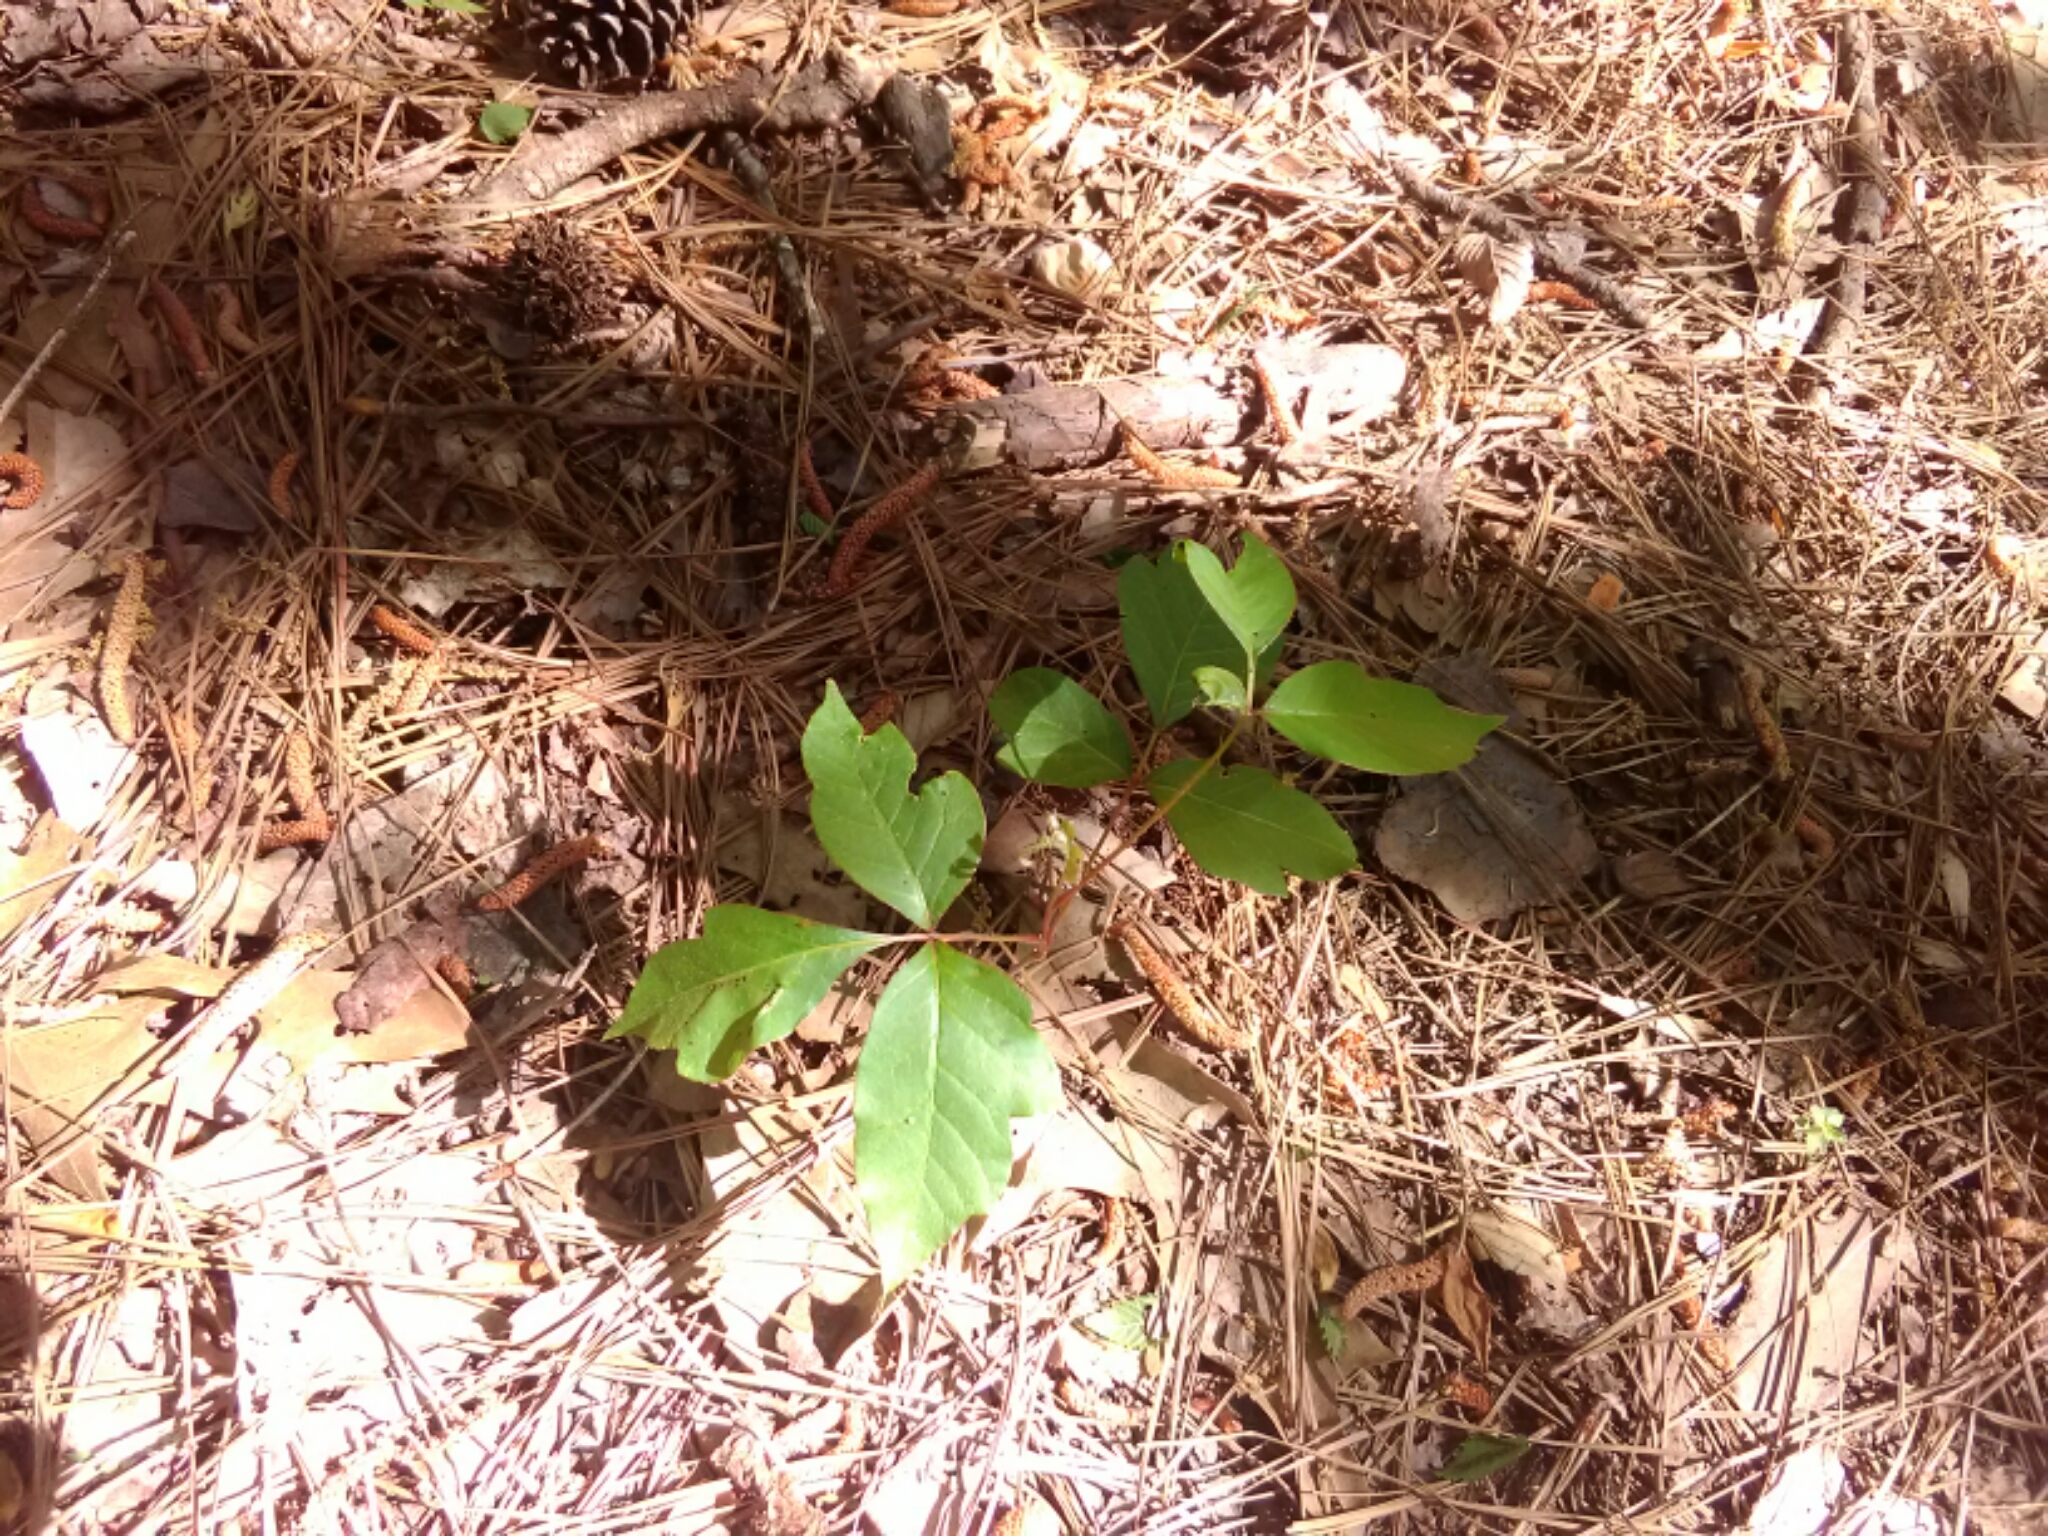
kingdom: Plantae
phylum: Tracheophyta
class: Magnoliopsida
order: Sapindales
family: Anacardiaceae
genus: Toxicodendron
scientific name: Toxicodendron radicans
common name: Poison ivy
